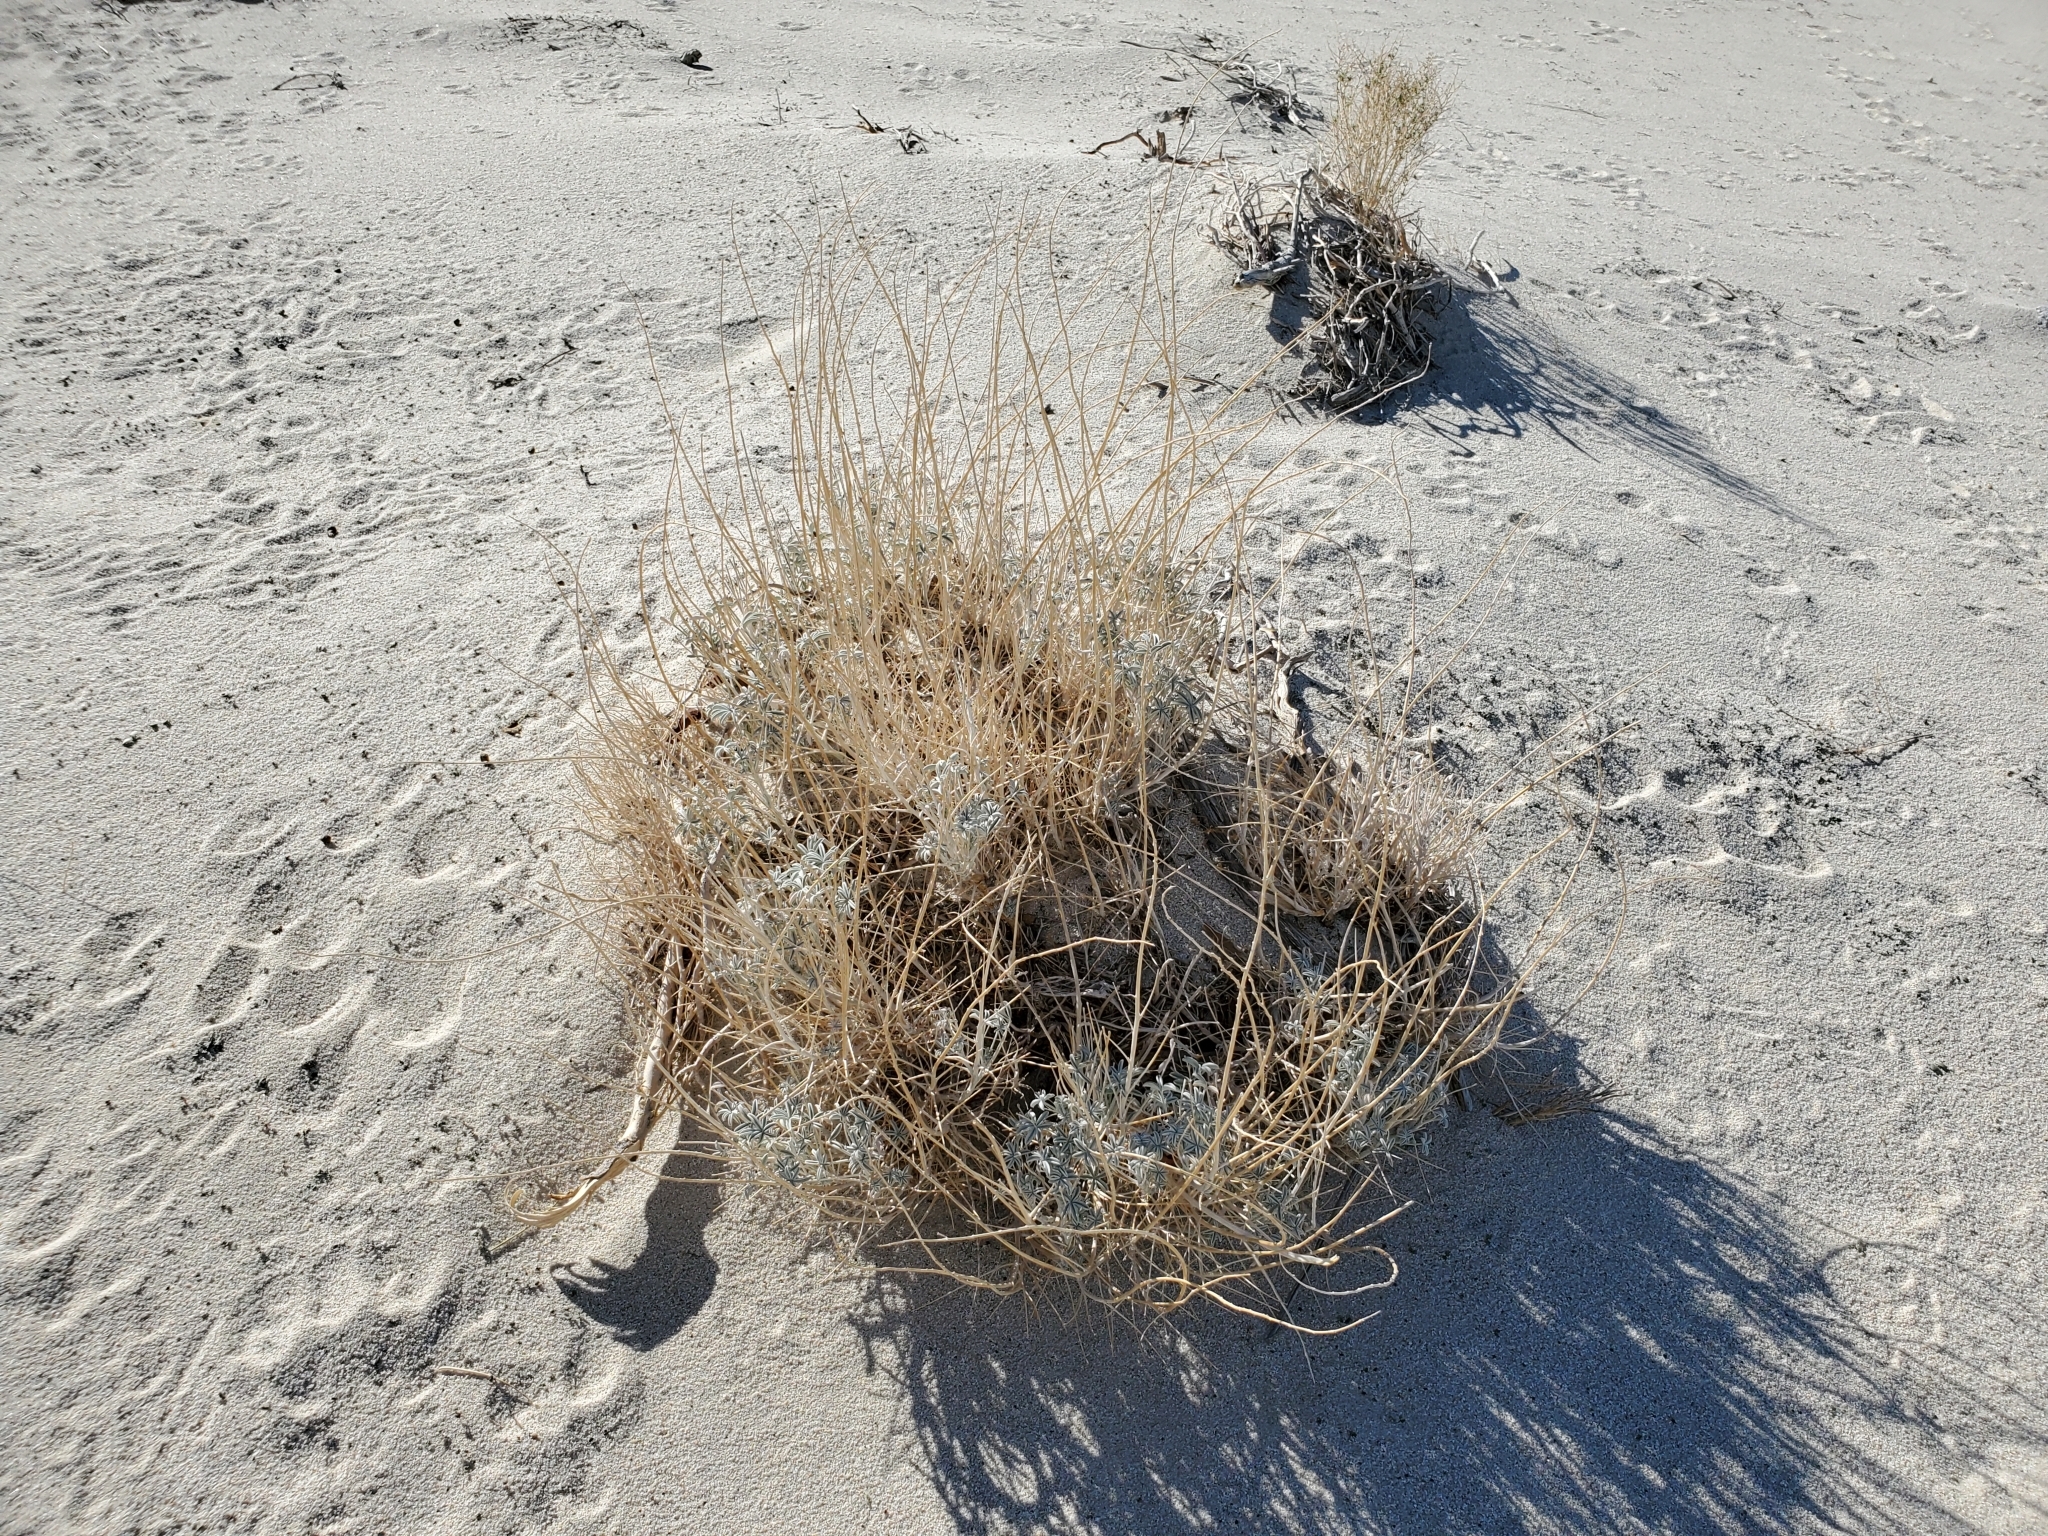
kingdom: Plantae
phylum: Tracheophyta
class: Magnoliopsida
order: Fabales
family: Fabaceae
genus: Lupinus
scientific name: Lupinus excubitus
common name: Grape soda lupine
